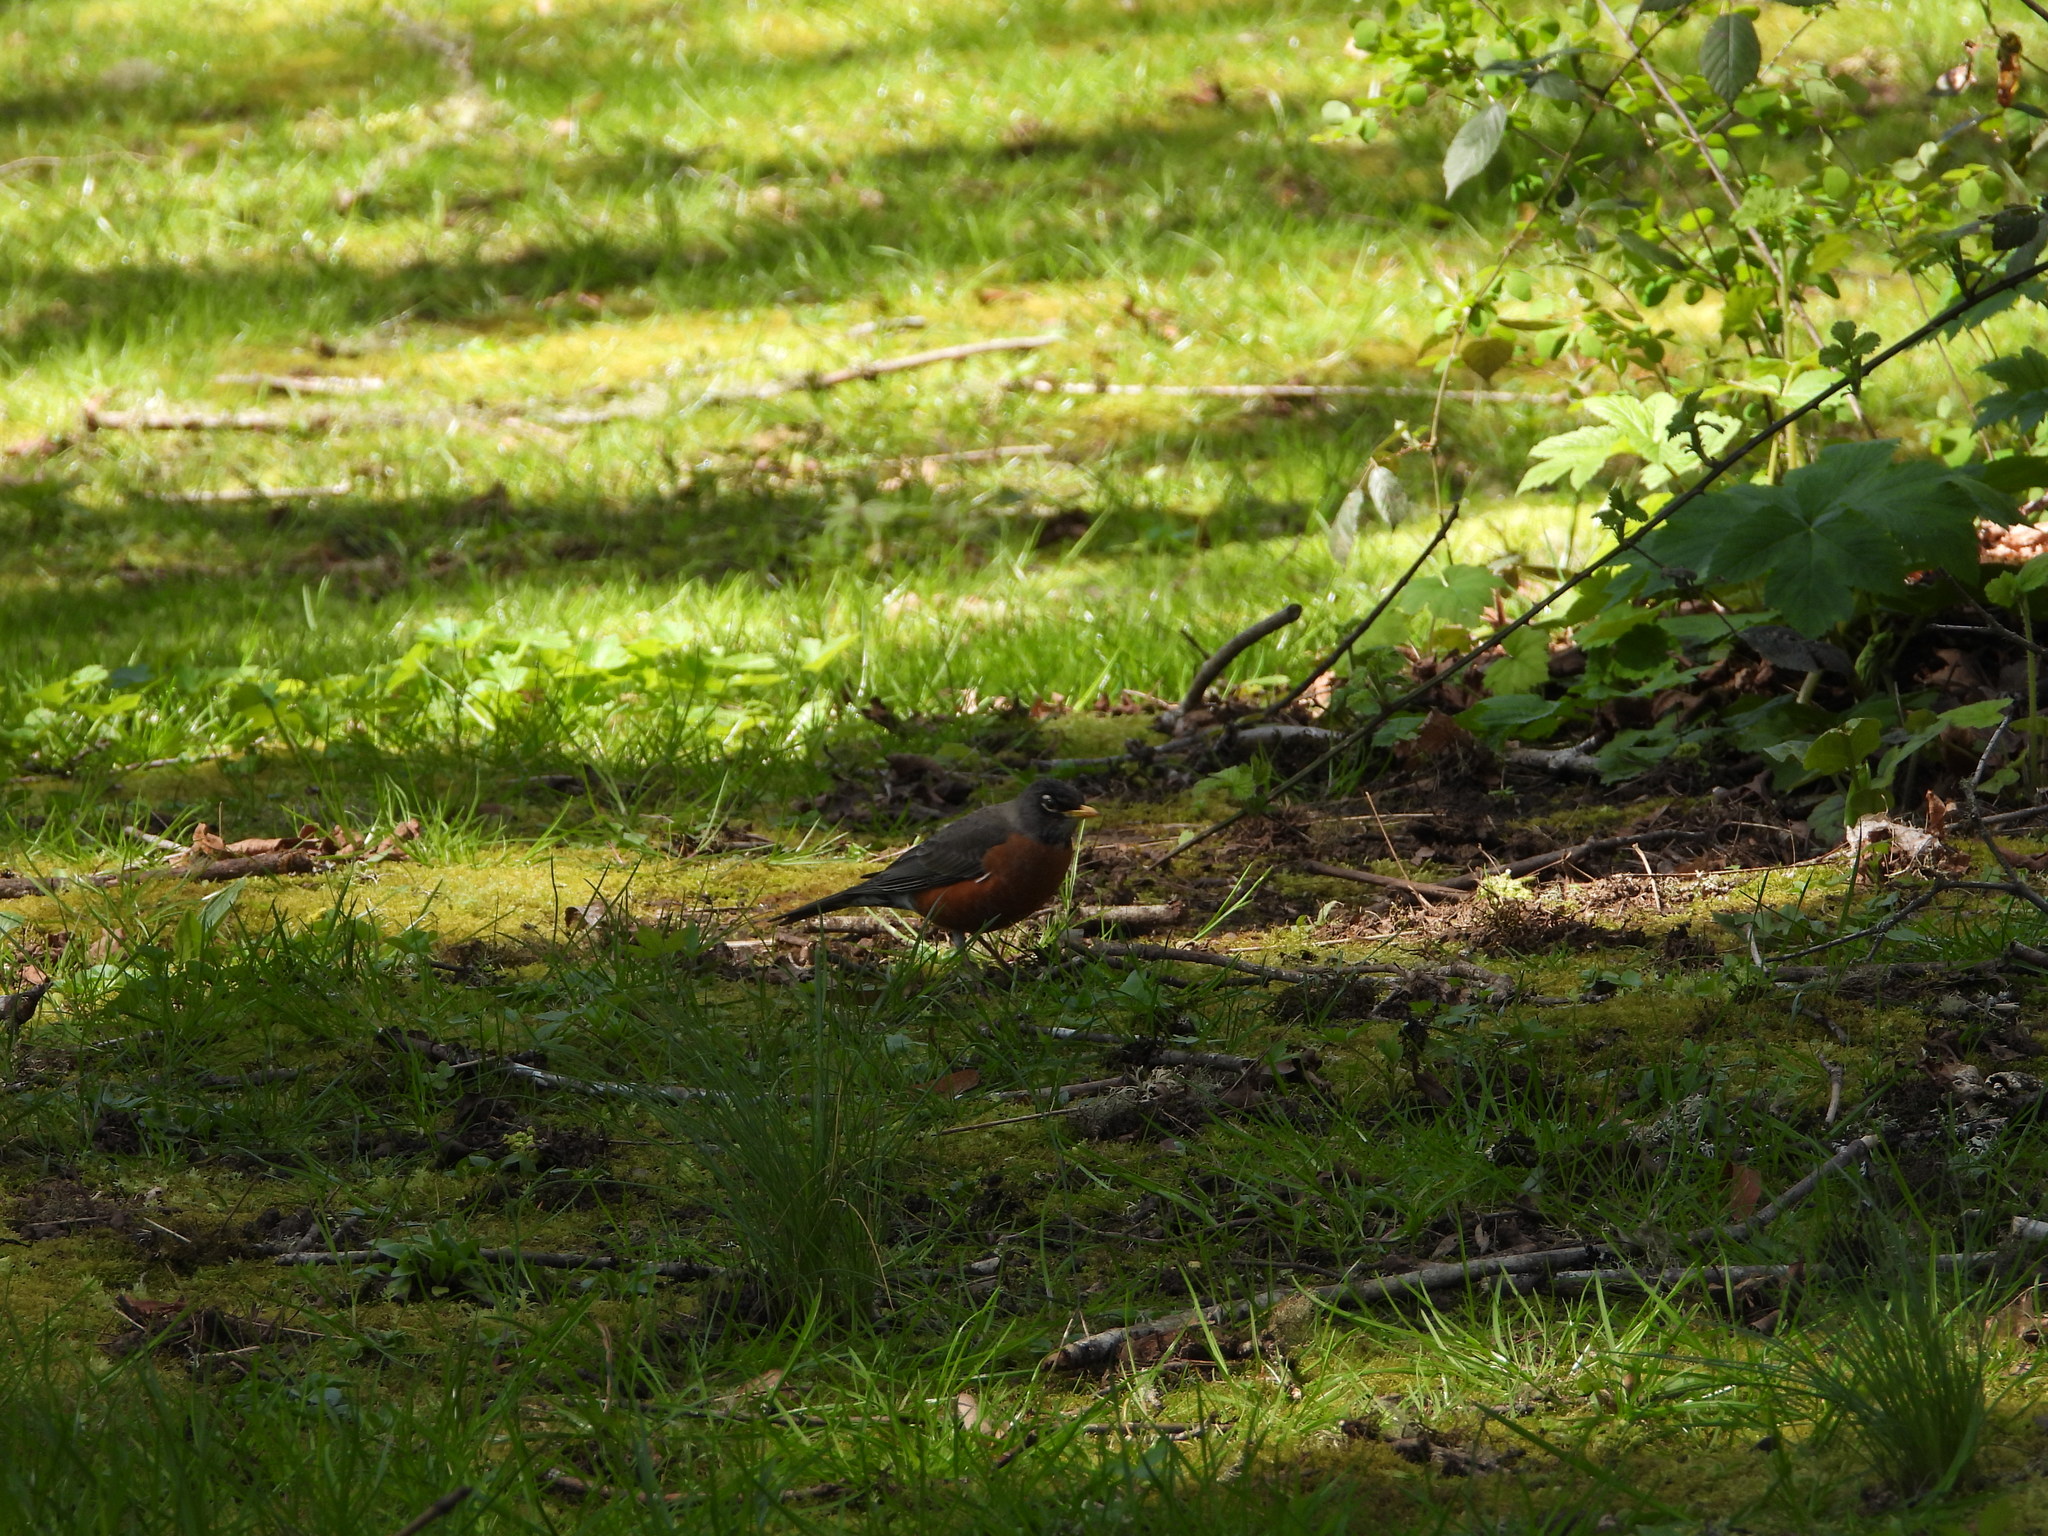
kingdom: Animalia
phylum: Chordata
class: Aves
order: Passeriformes
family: Turdidae
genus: Turdus
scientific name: Turdus migratorius
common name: American robin
